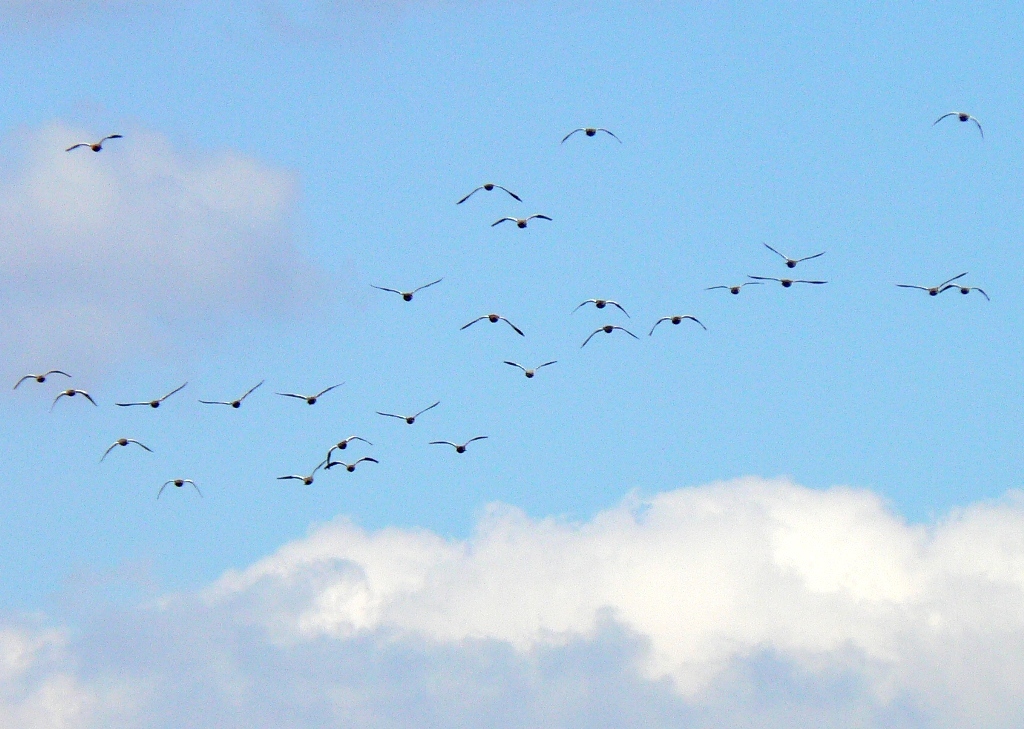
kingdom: Animalia
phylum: Chordata
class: Aves
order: Anseriformes
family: Anatidae
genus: Tadorna
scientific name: Tadorna ferruginea
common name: Ruddy shelduck
